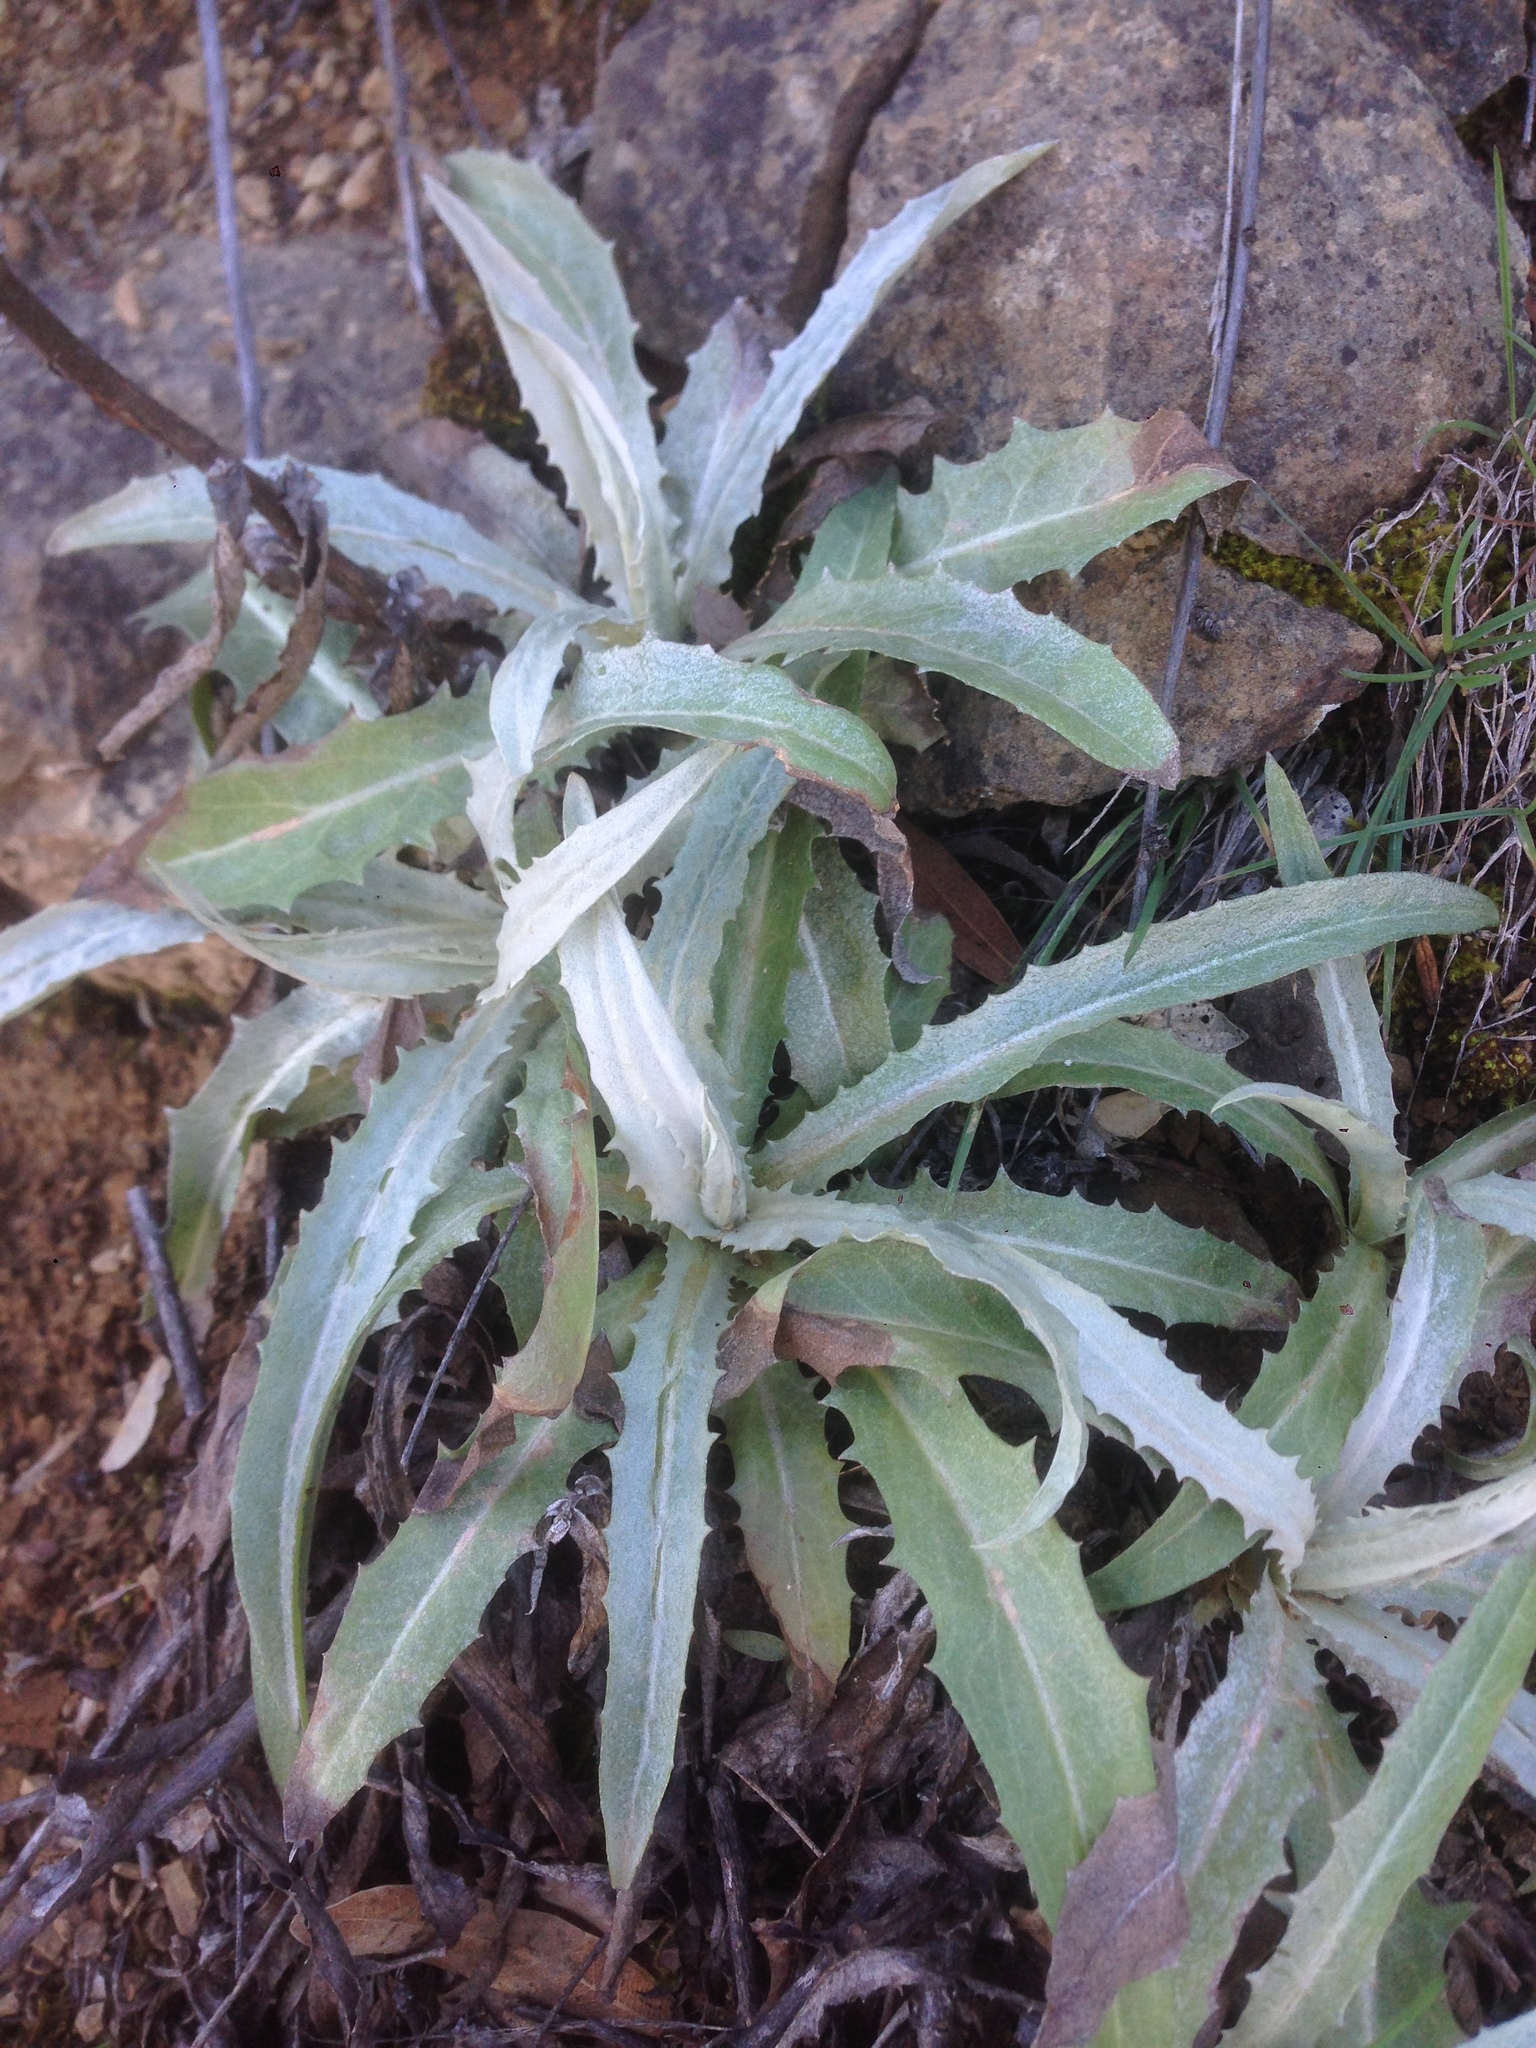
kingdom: Plantae
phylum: Tracheophyta
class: Magnoliopsida
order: Asterales
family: Asteraceae
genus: Stephanomeria
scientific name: Stephanomeria cichoriacea
